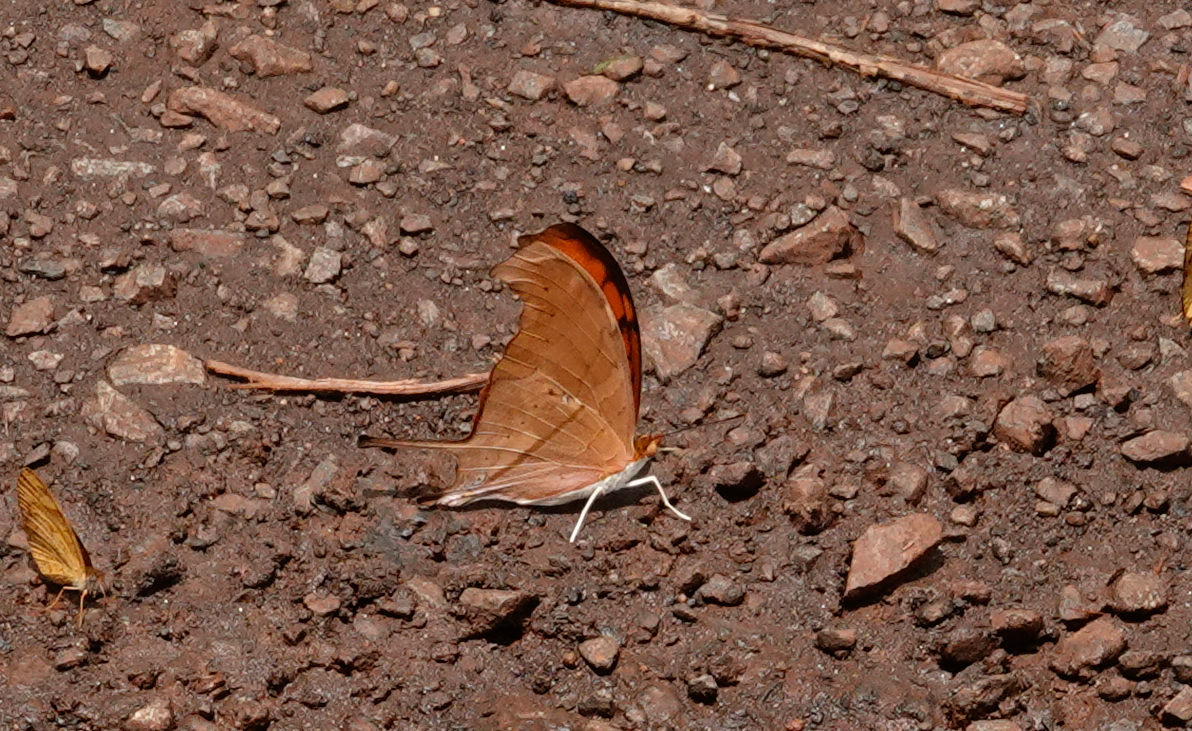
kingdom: Animalia
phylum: Arthropoda
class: Insecta
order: Lepidoptera
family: Nymphalidae
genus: Marpesia
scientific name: Marpesia petreus
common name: Red dagger wing
